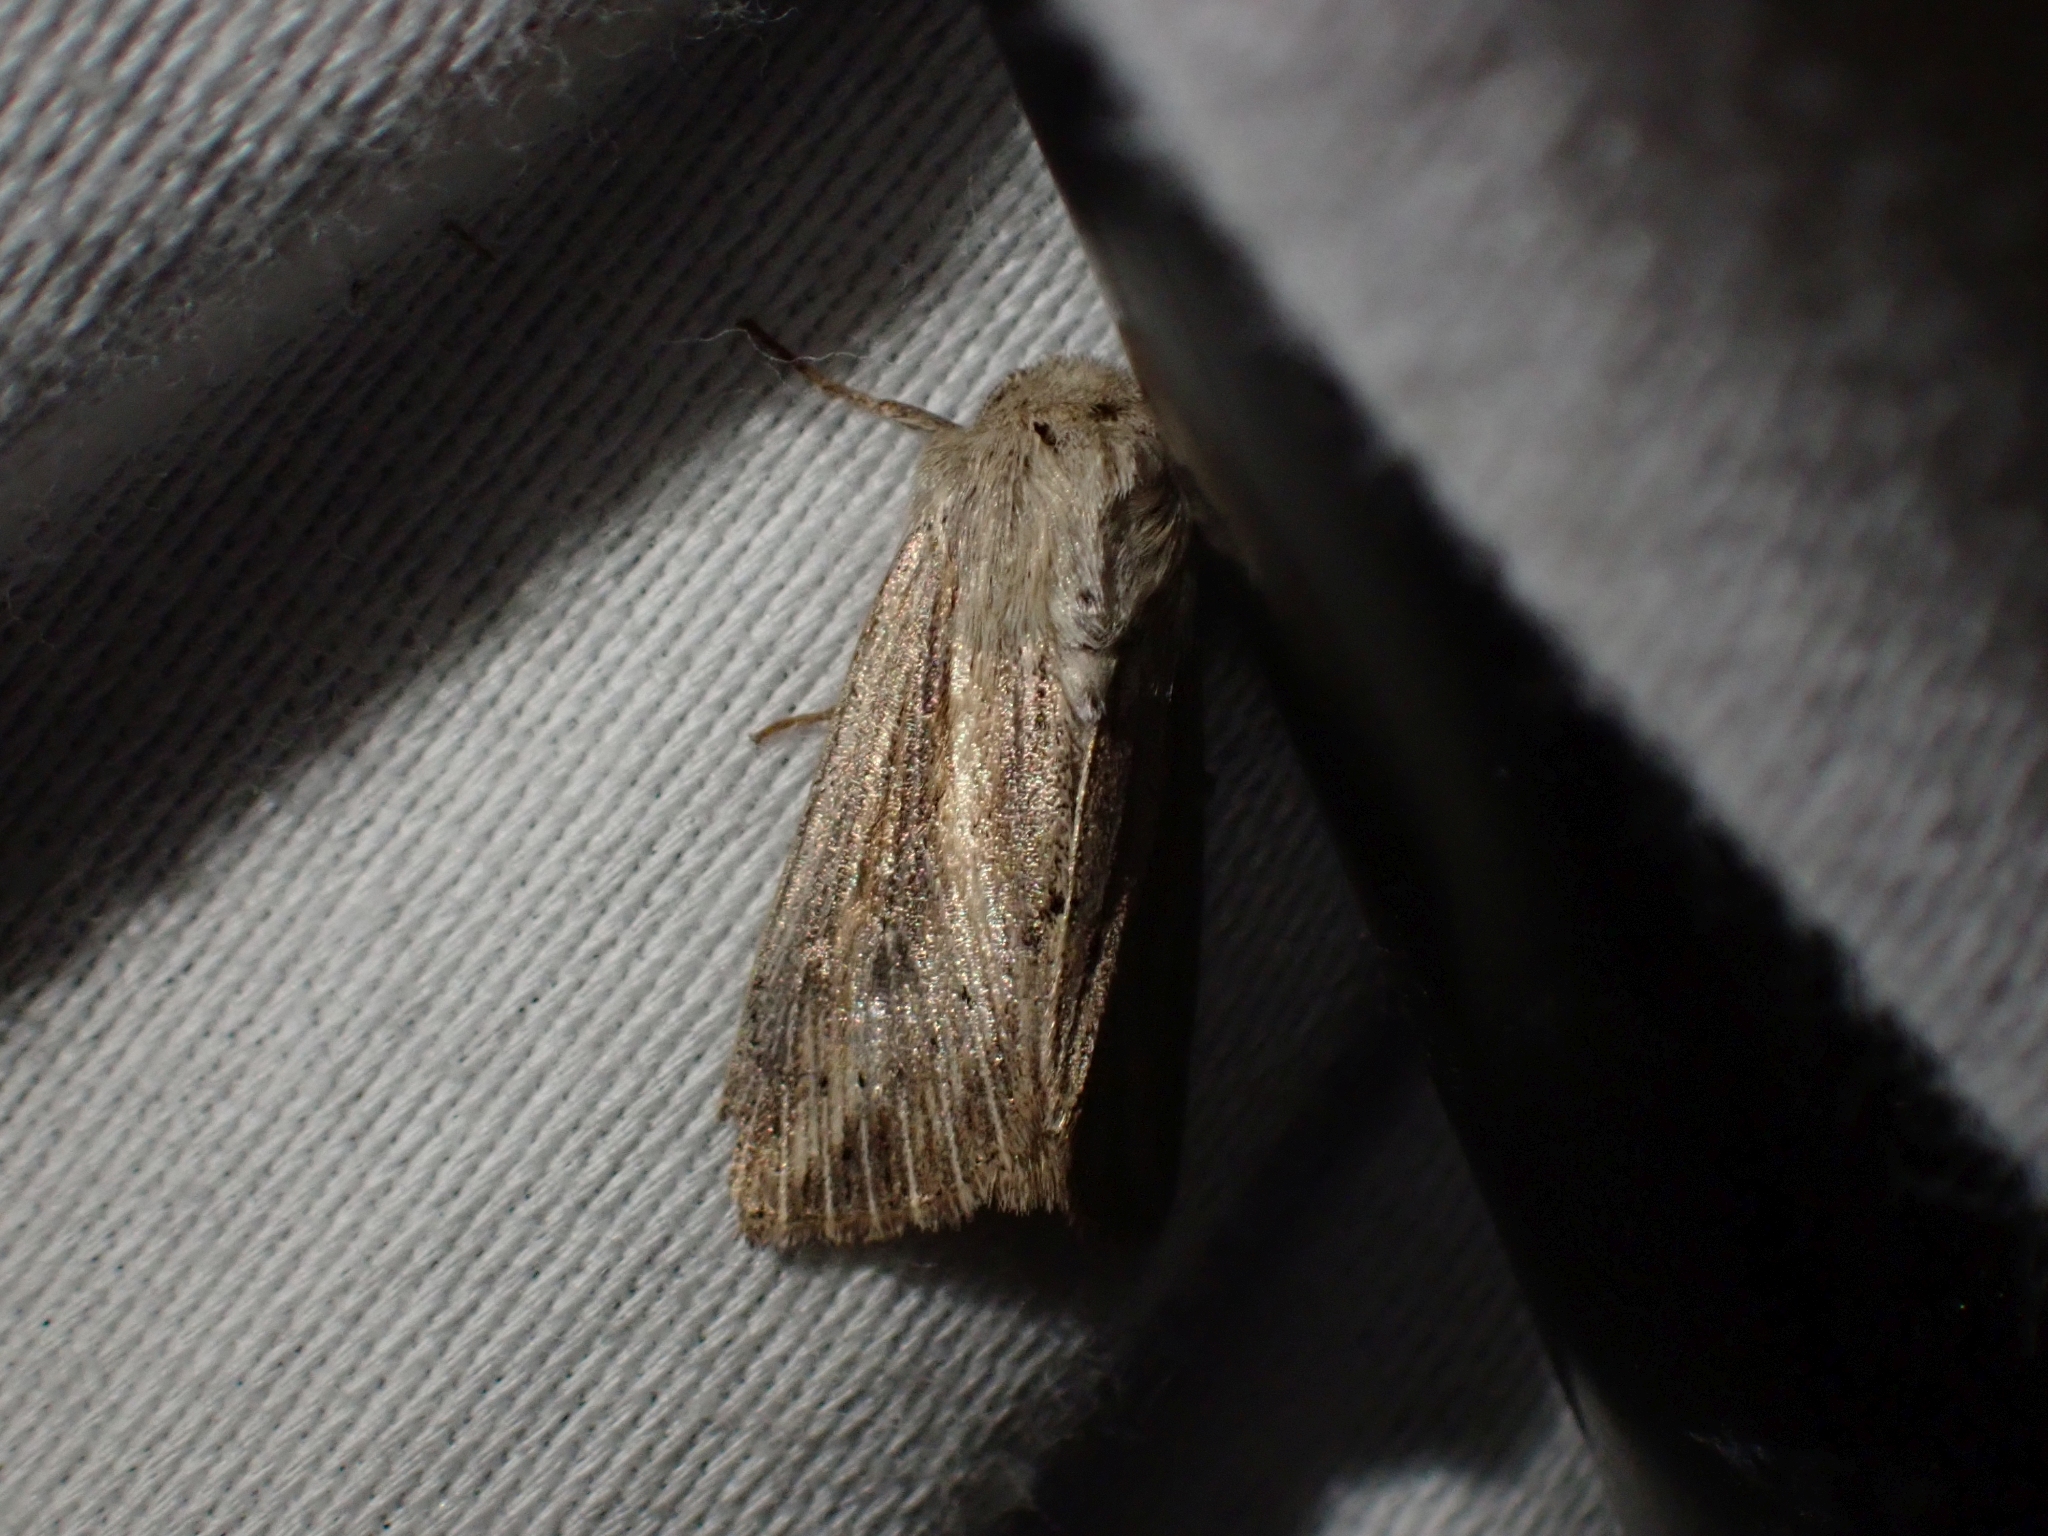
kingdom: Animalia
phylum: Arthropoda
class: Insecta
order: Lepidoptera
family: Noctuidae
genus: Leucania
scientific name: Leucania insueta
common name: Heterodox wainscot moth
